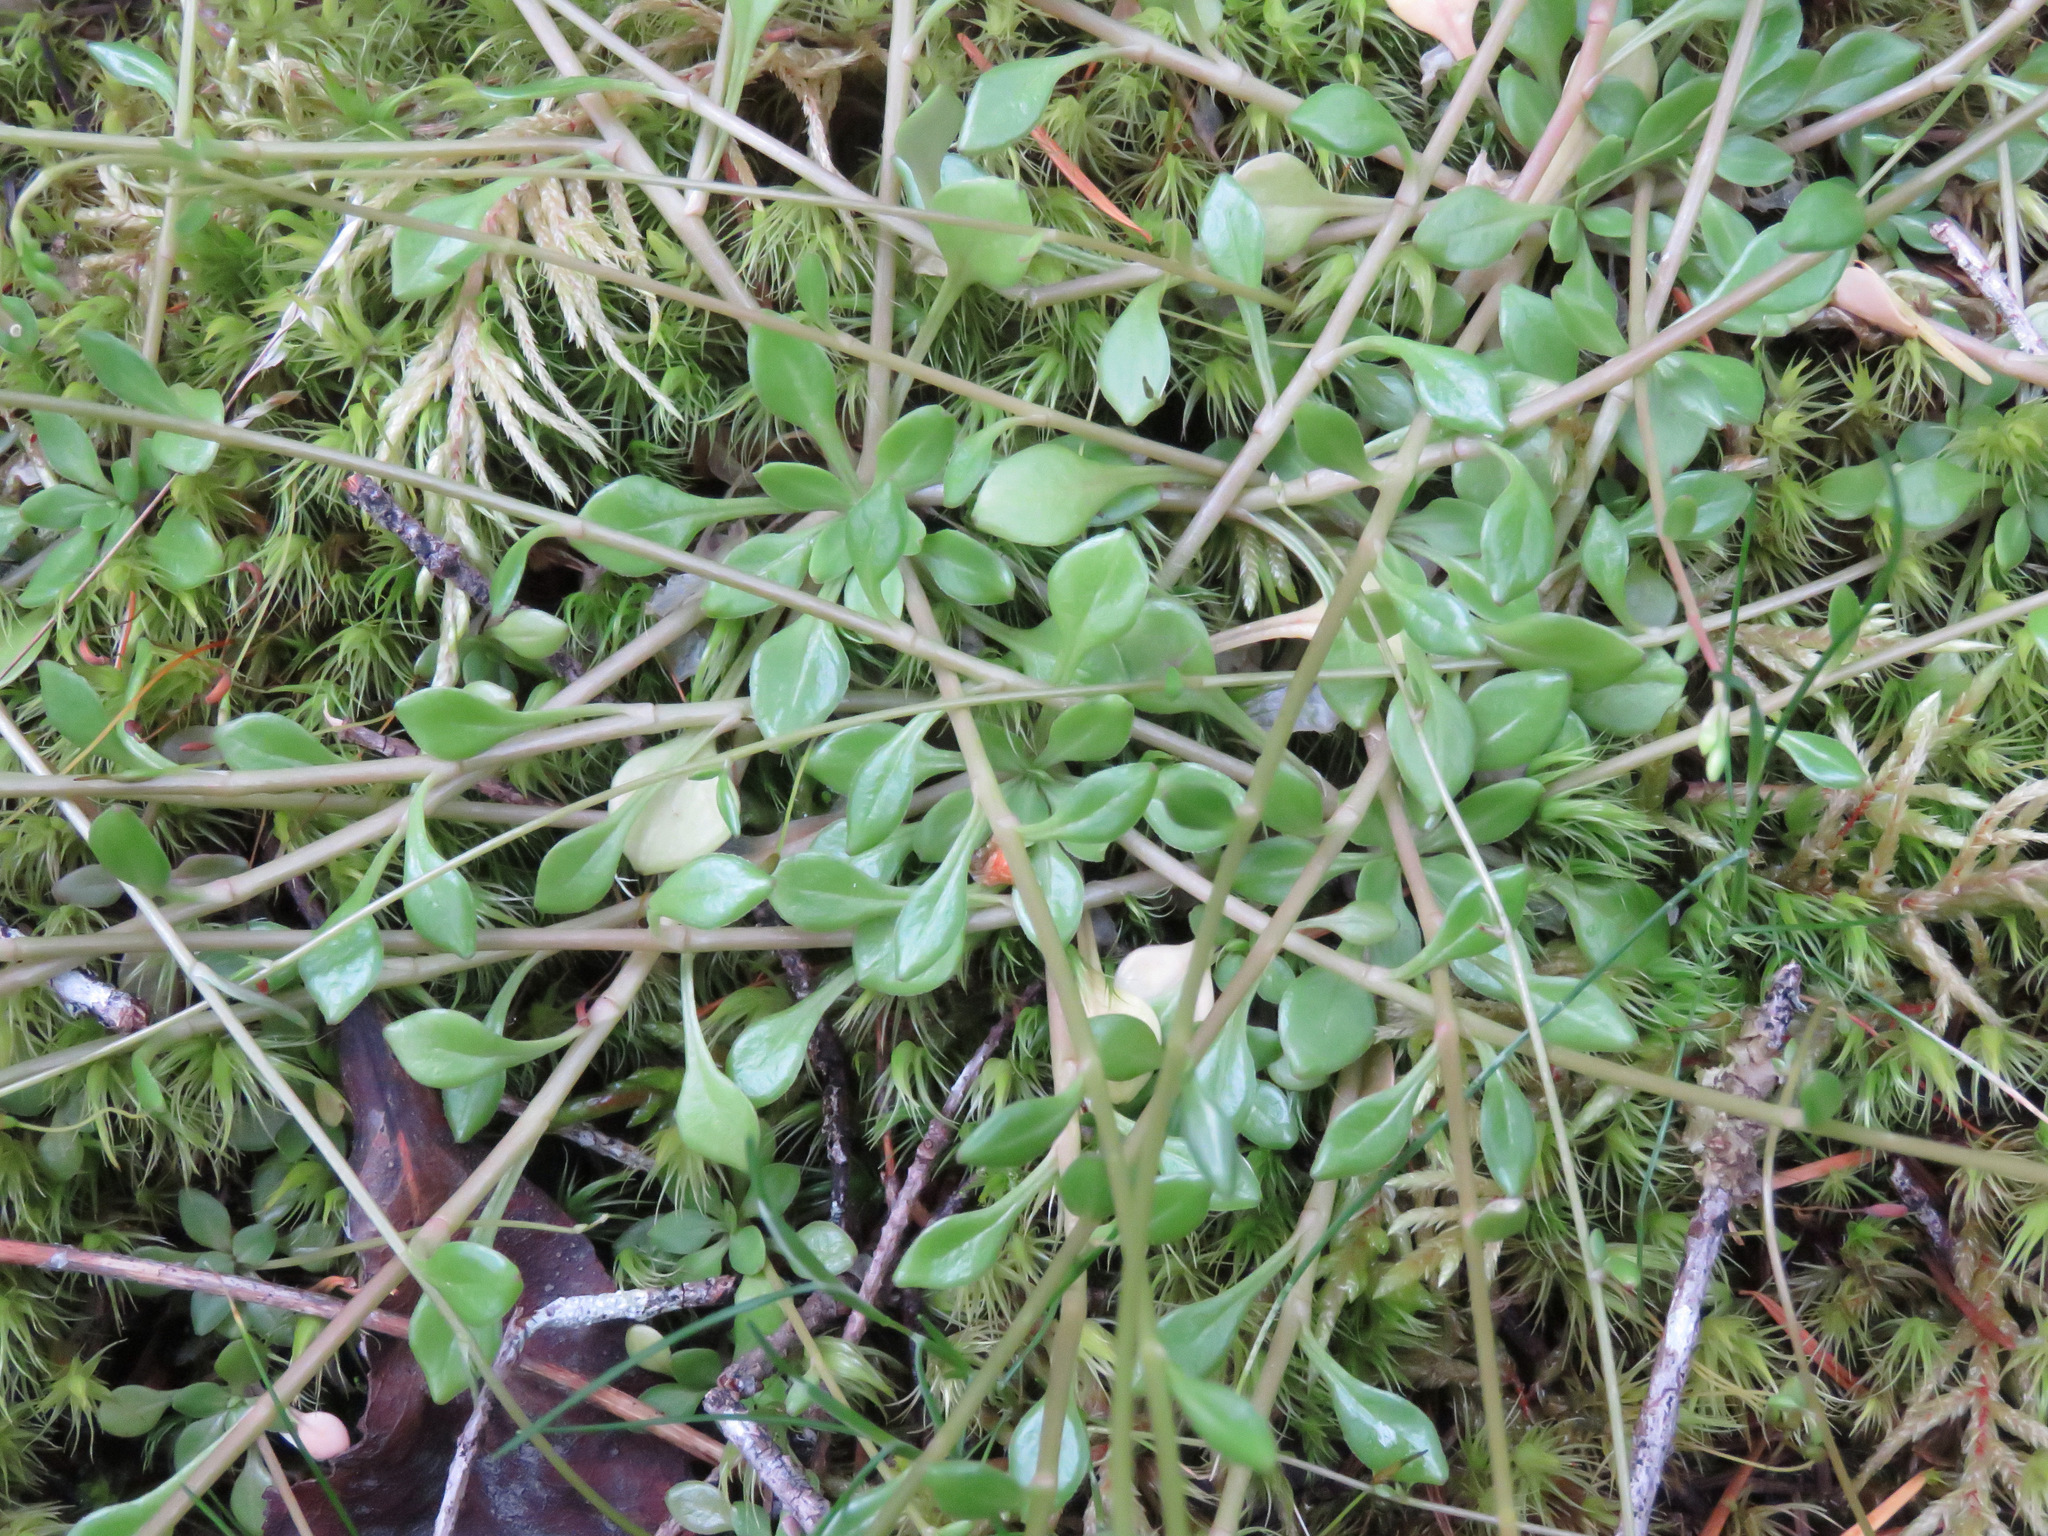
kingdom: Plantae
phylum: Tracheophyta
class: Magnoliopsida
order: Caryophyllales
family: Montiaceae
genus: Montia
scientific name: Montia parvifolia
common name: Small-leaved blinks
